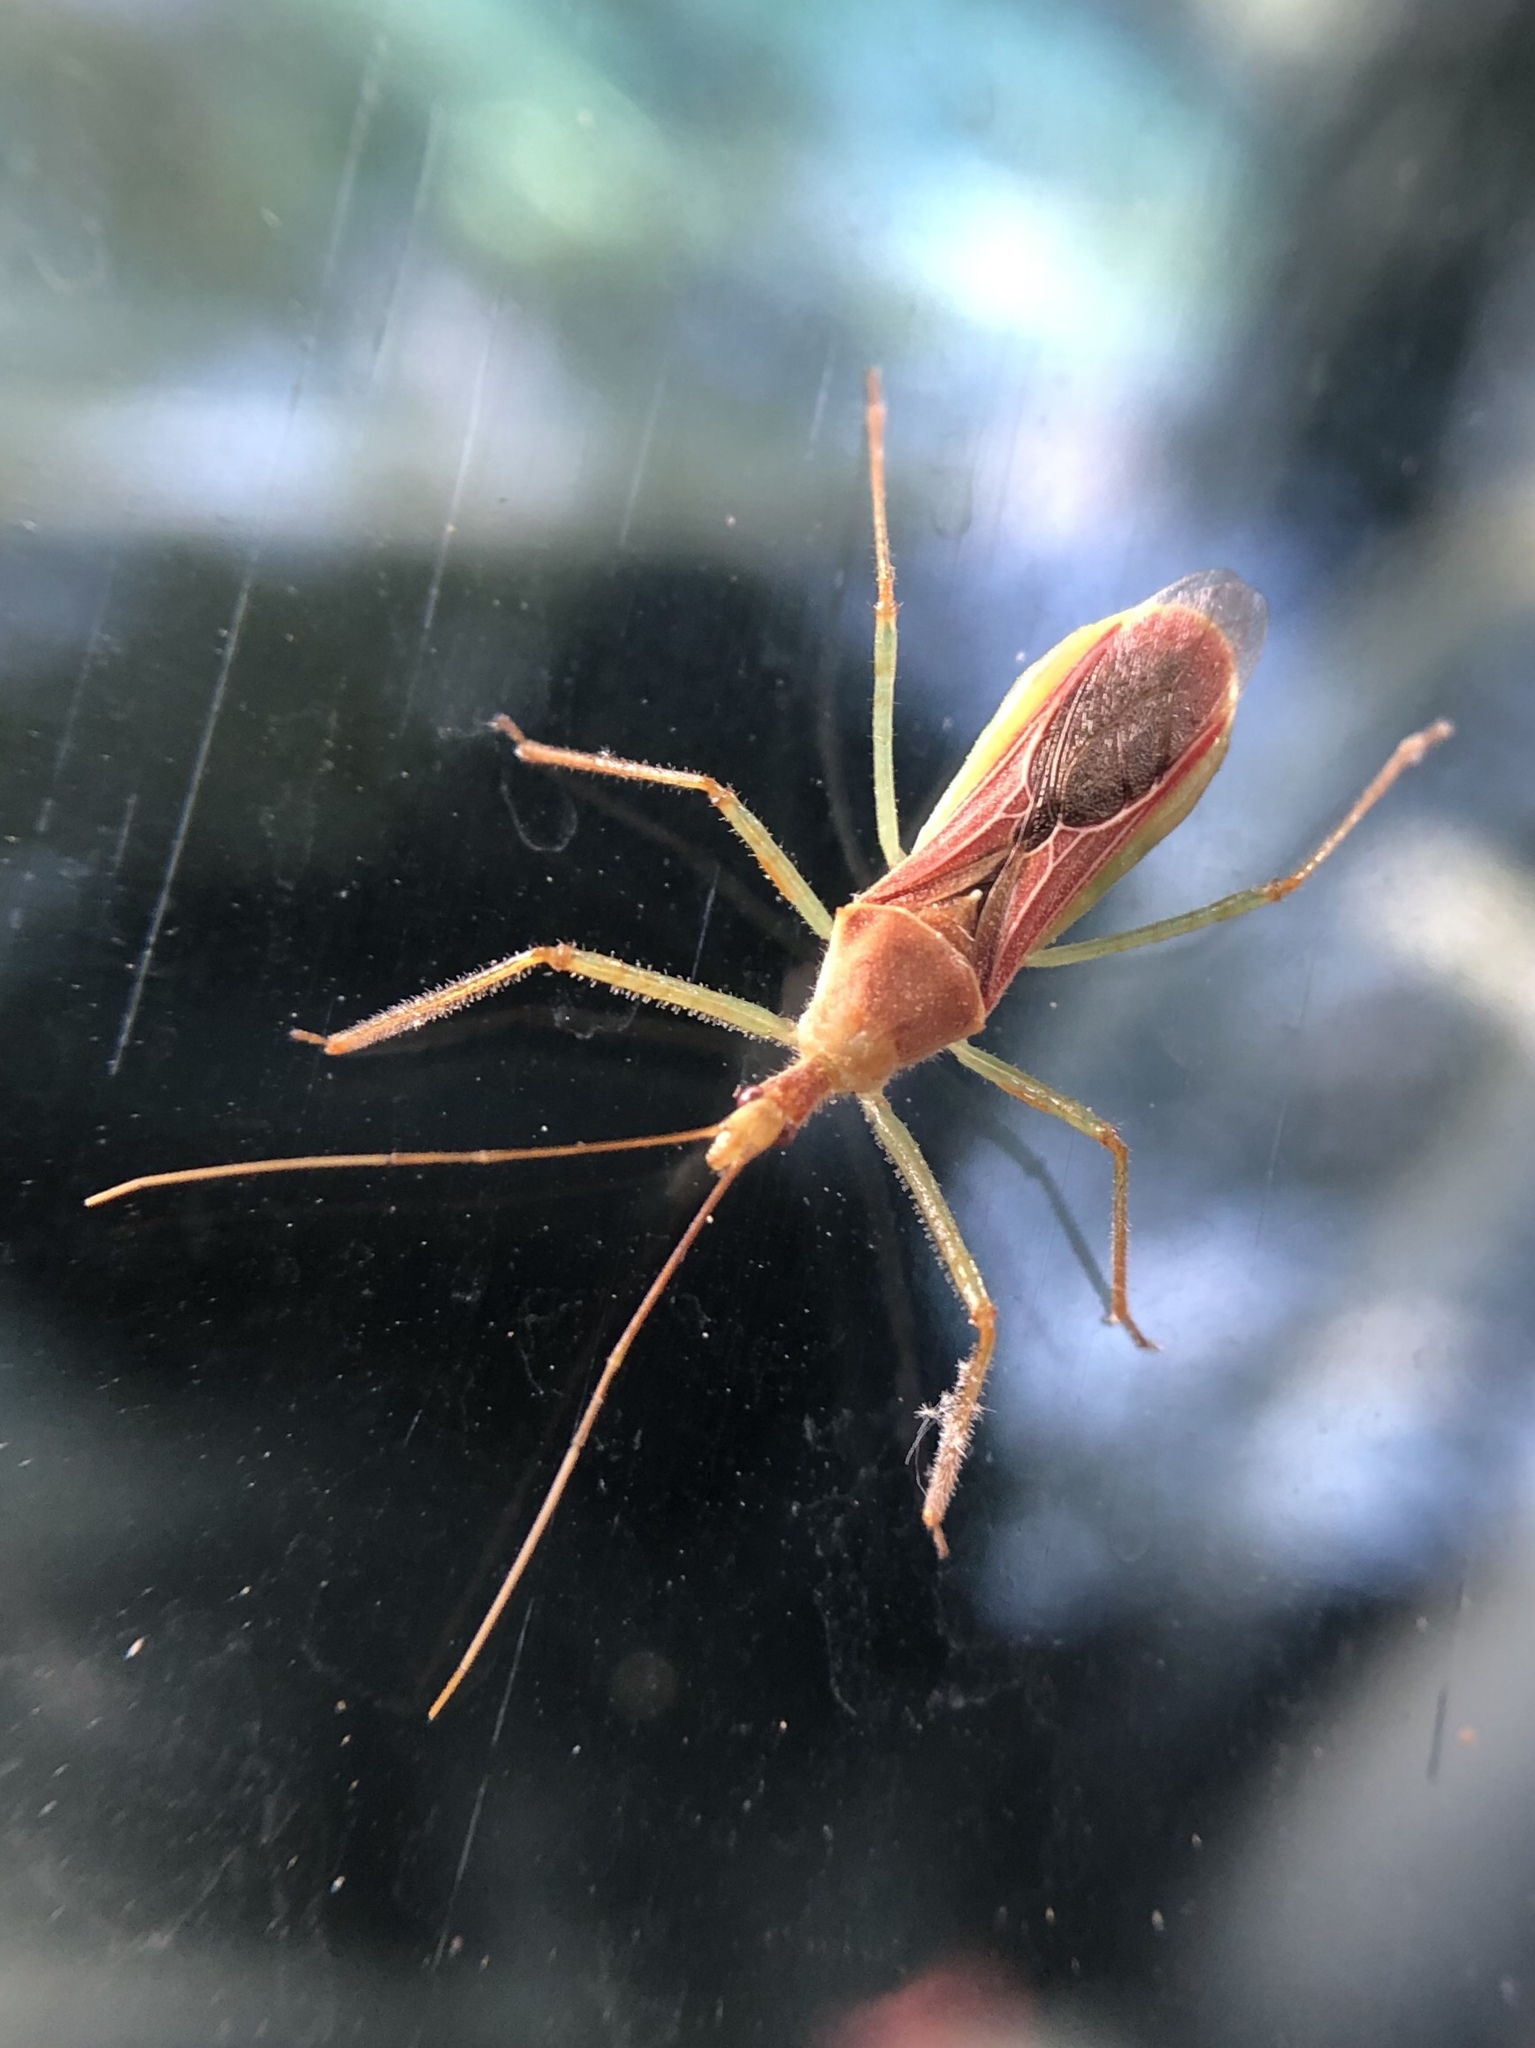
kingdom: Animalia
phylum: Arthropoda
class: Insecta
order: Hemiptera
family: Reduviidae
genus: Zelus
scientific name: Zelus renardii
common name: Assassin bug
